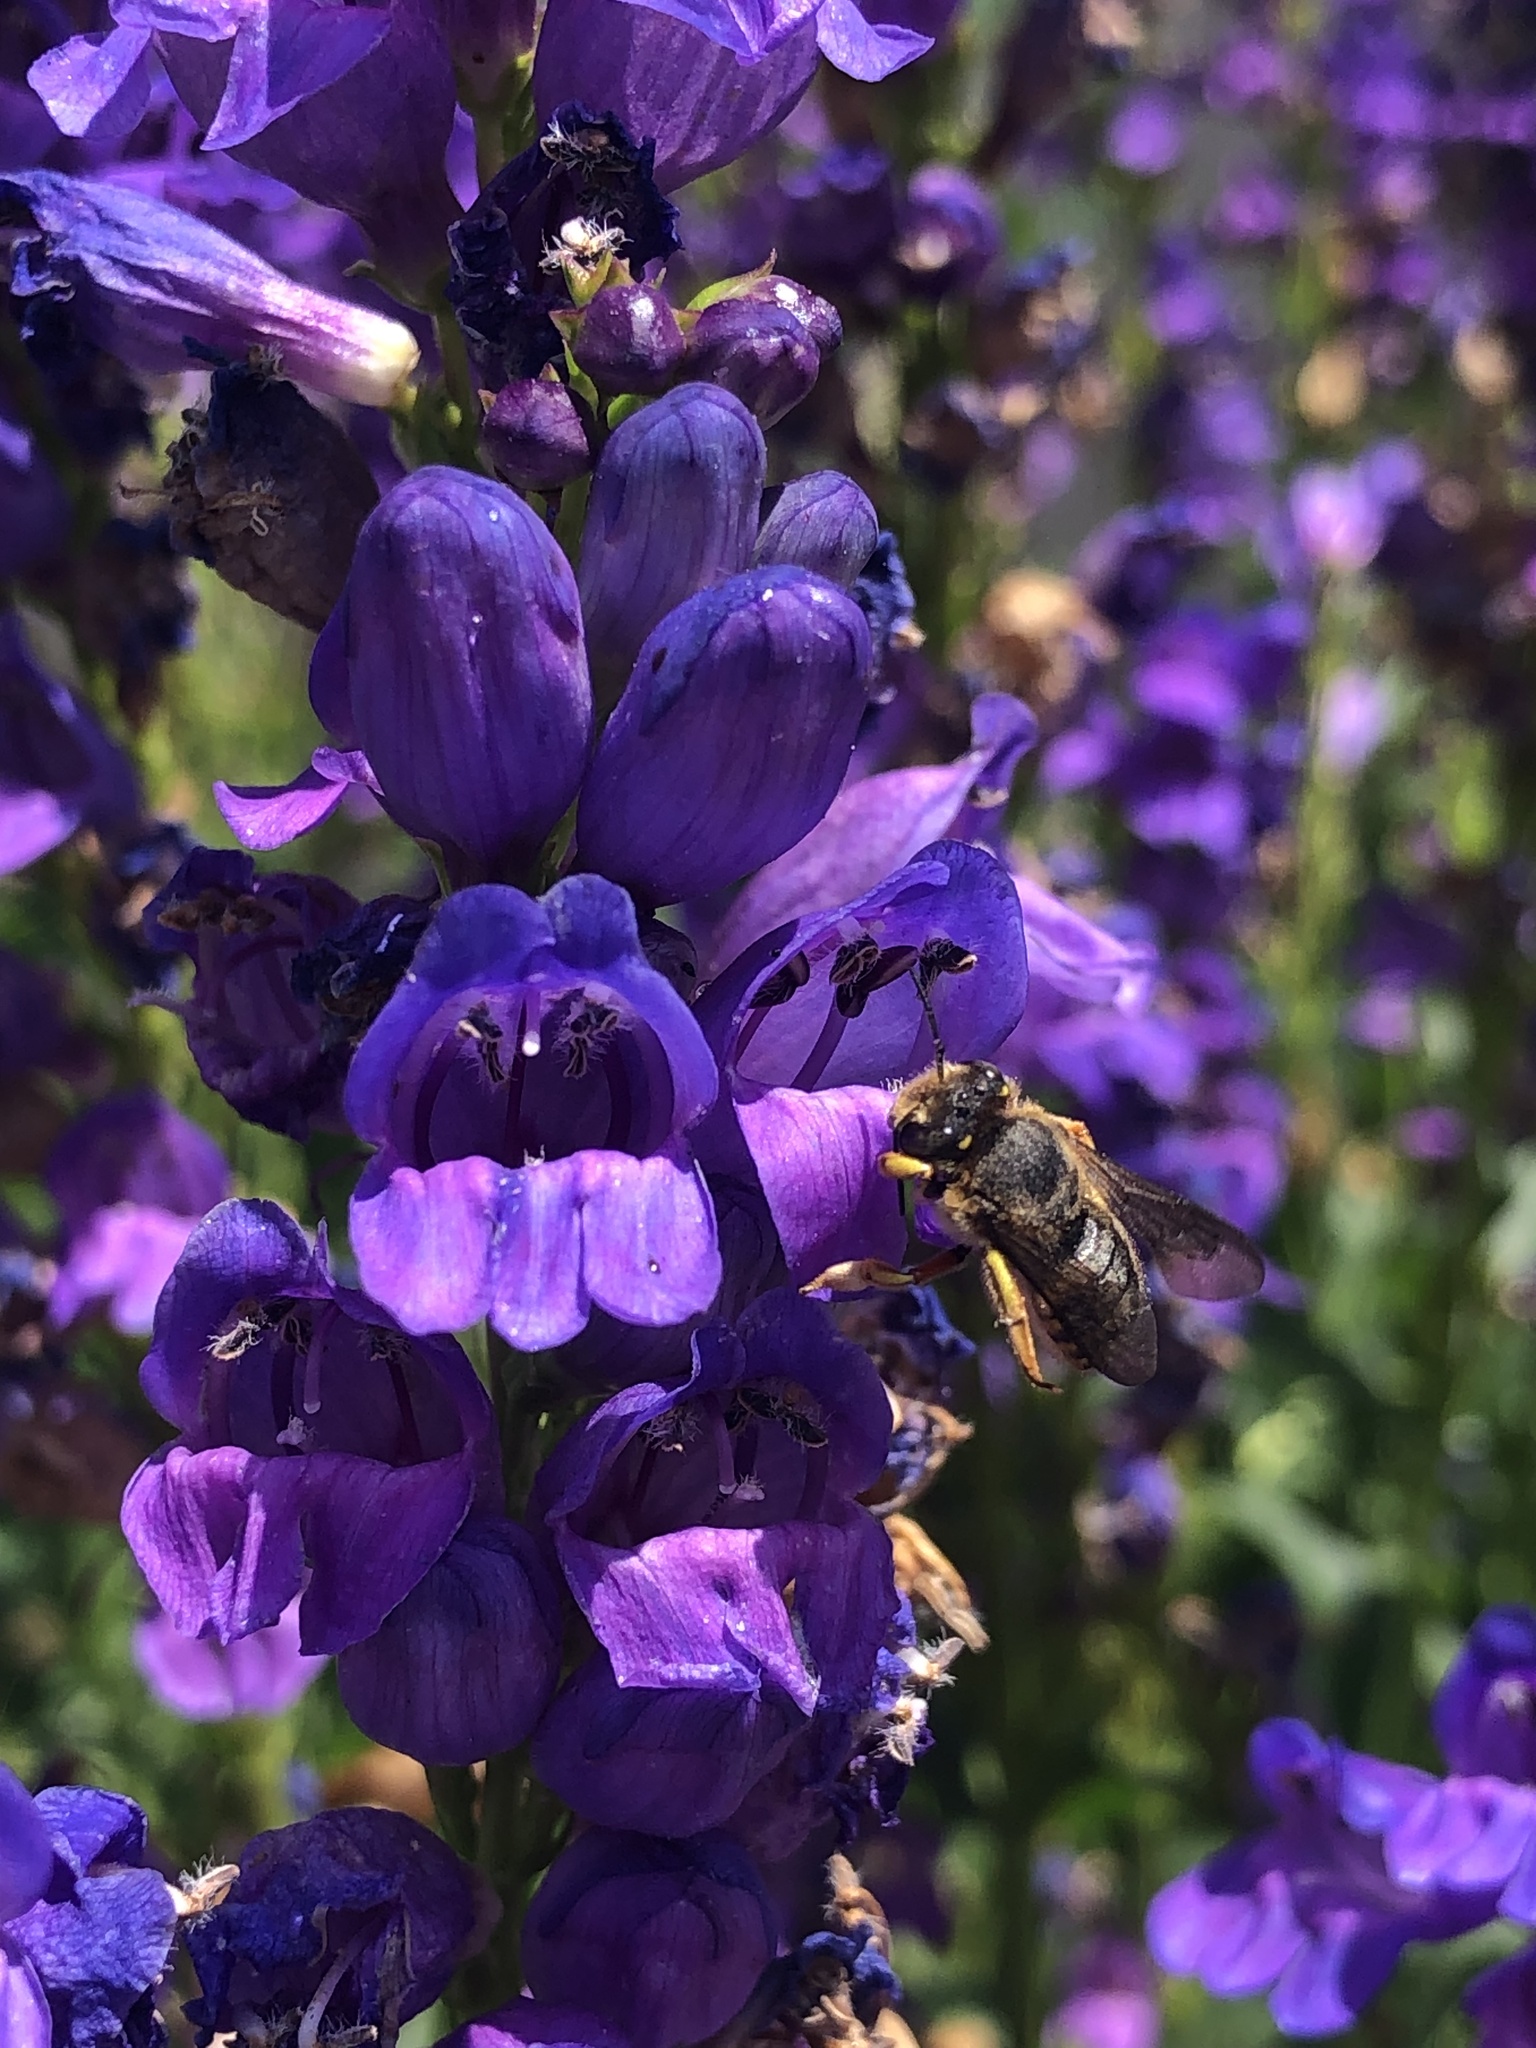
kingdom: Animalia
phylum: Arthropoda
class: Insecta
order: Hymenoptera
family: Megachilidae
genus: Anthidium
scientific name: Anthidium manicatum
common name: Wool carder bee
